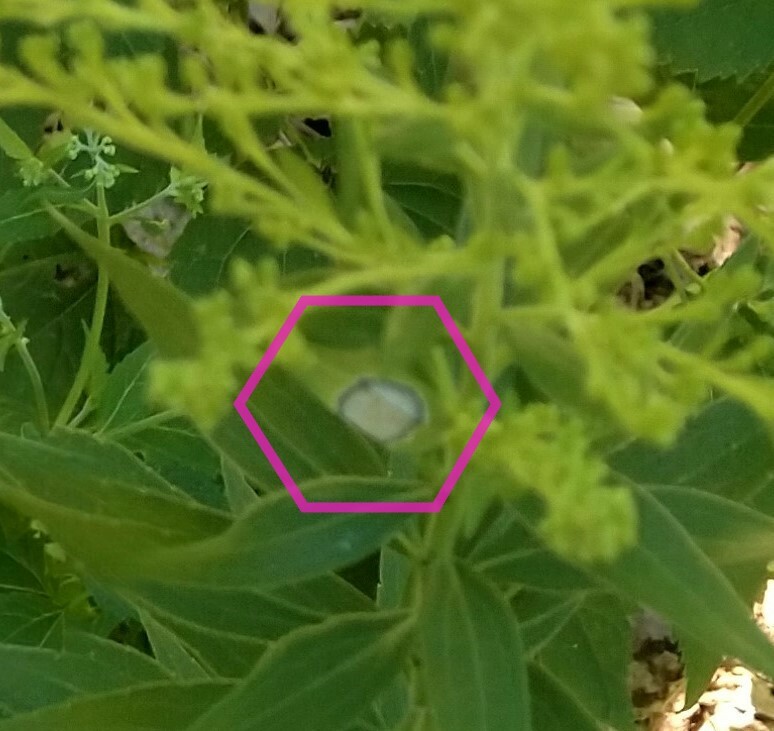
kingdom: Animalia
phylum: Arthropoda
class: Insecta
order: Diptera
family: Cecidomyiidae
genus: Asteromyia
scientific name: Asteromyia carbonifera
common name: Carbonifera goldenrod gall midge
